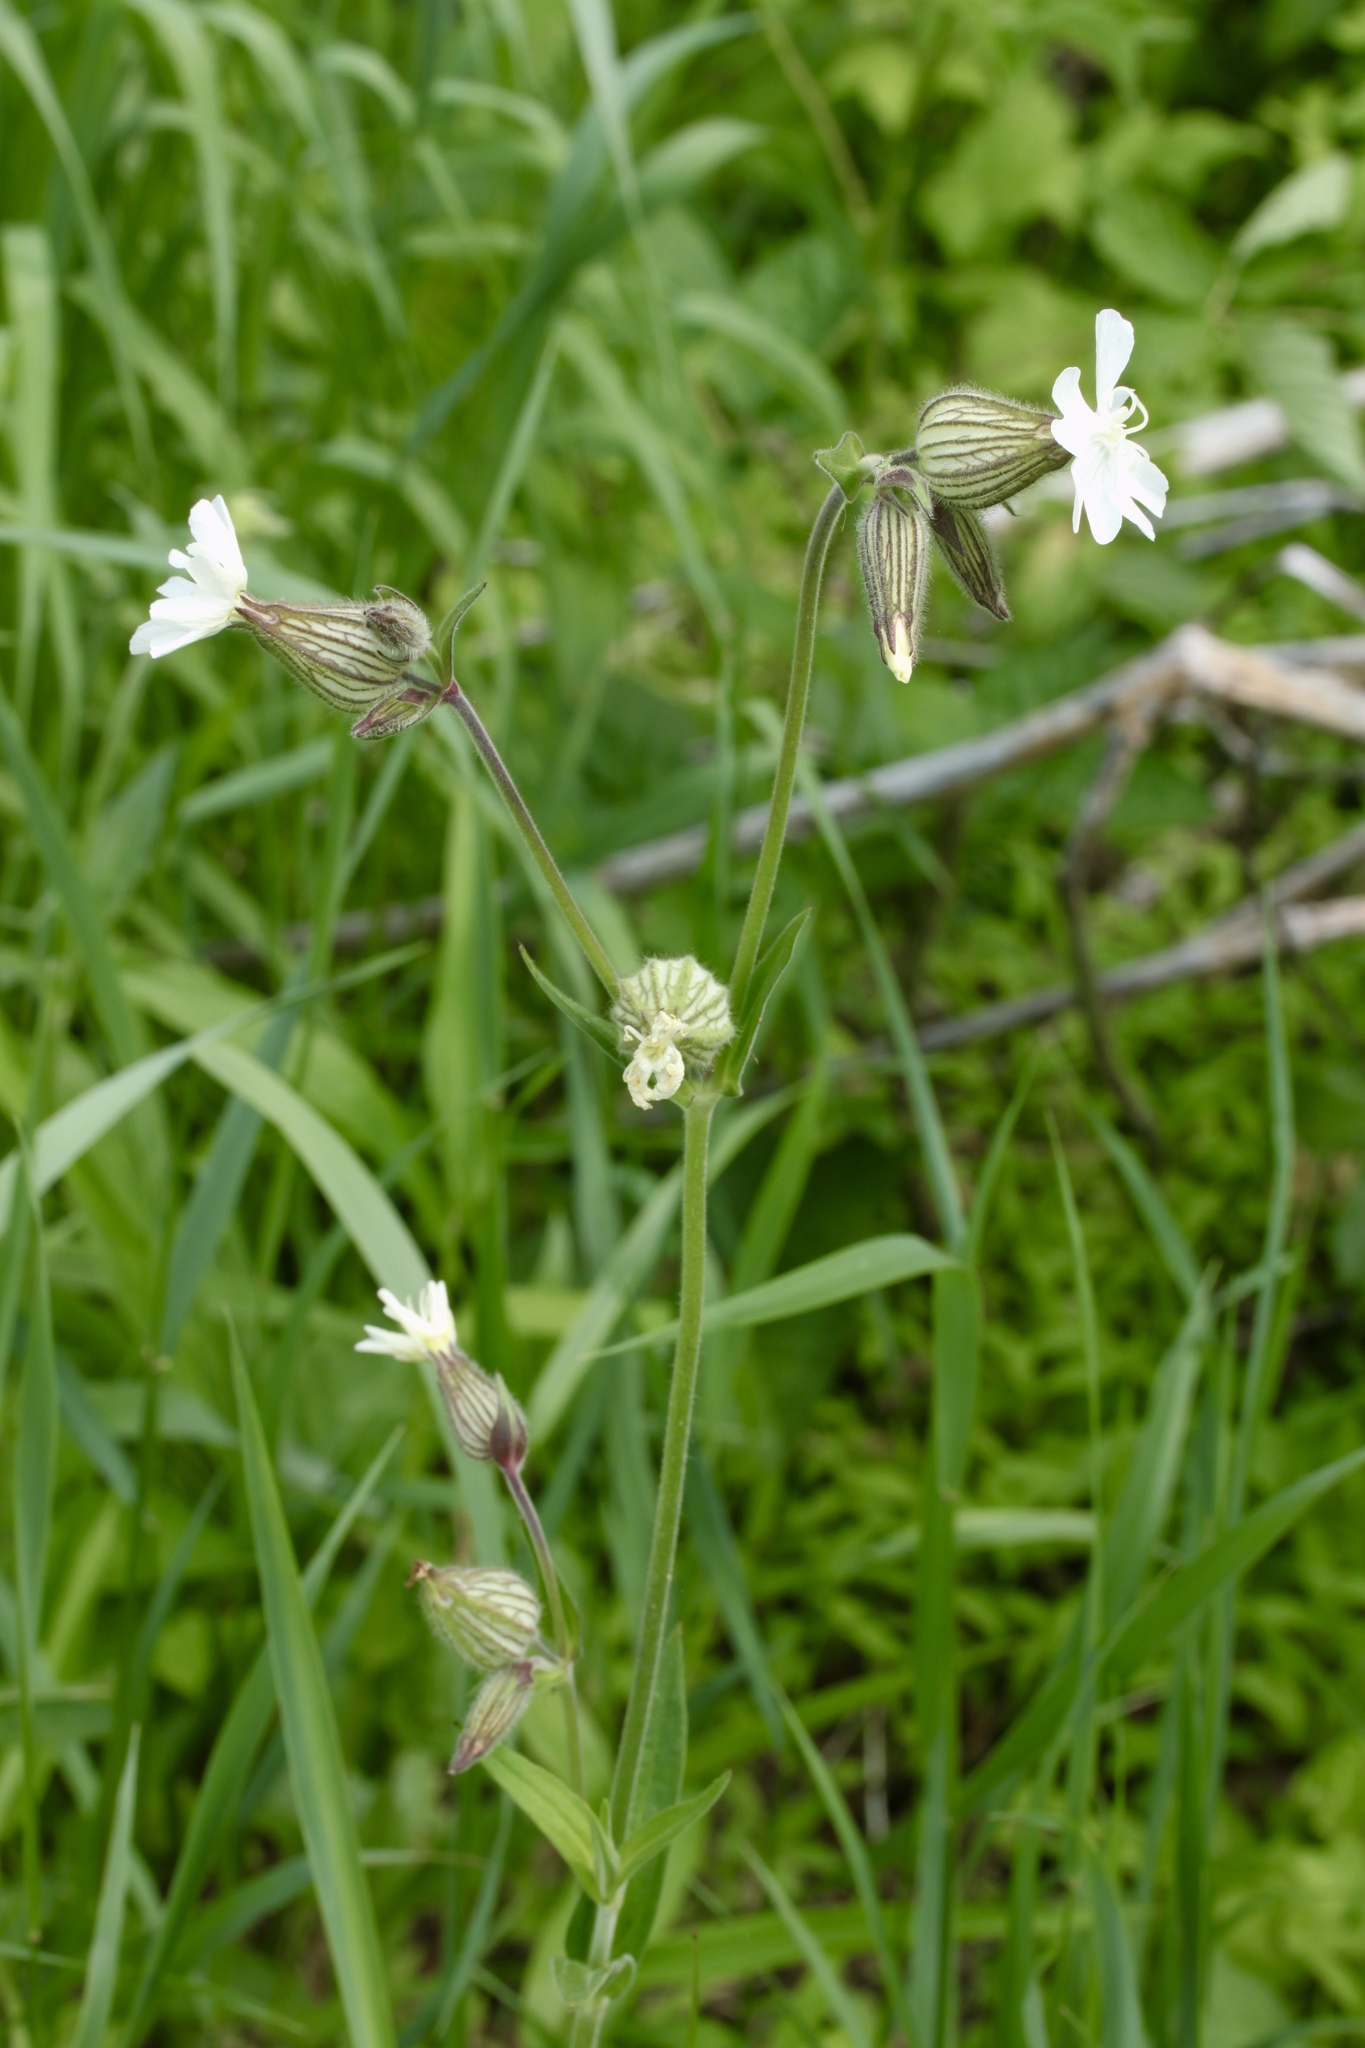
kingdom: Plantae
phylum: Tracheophyta
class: Magnoliopsida
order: Caryophyllales
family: Caryophyllaceae
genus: Silene
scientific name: Silene latifolia
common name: White campion
